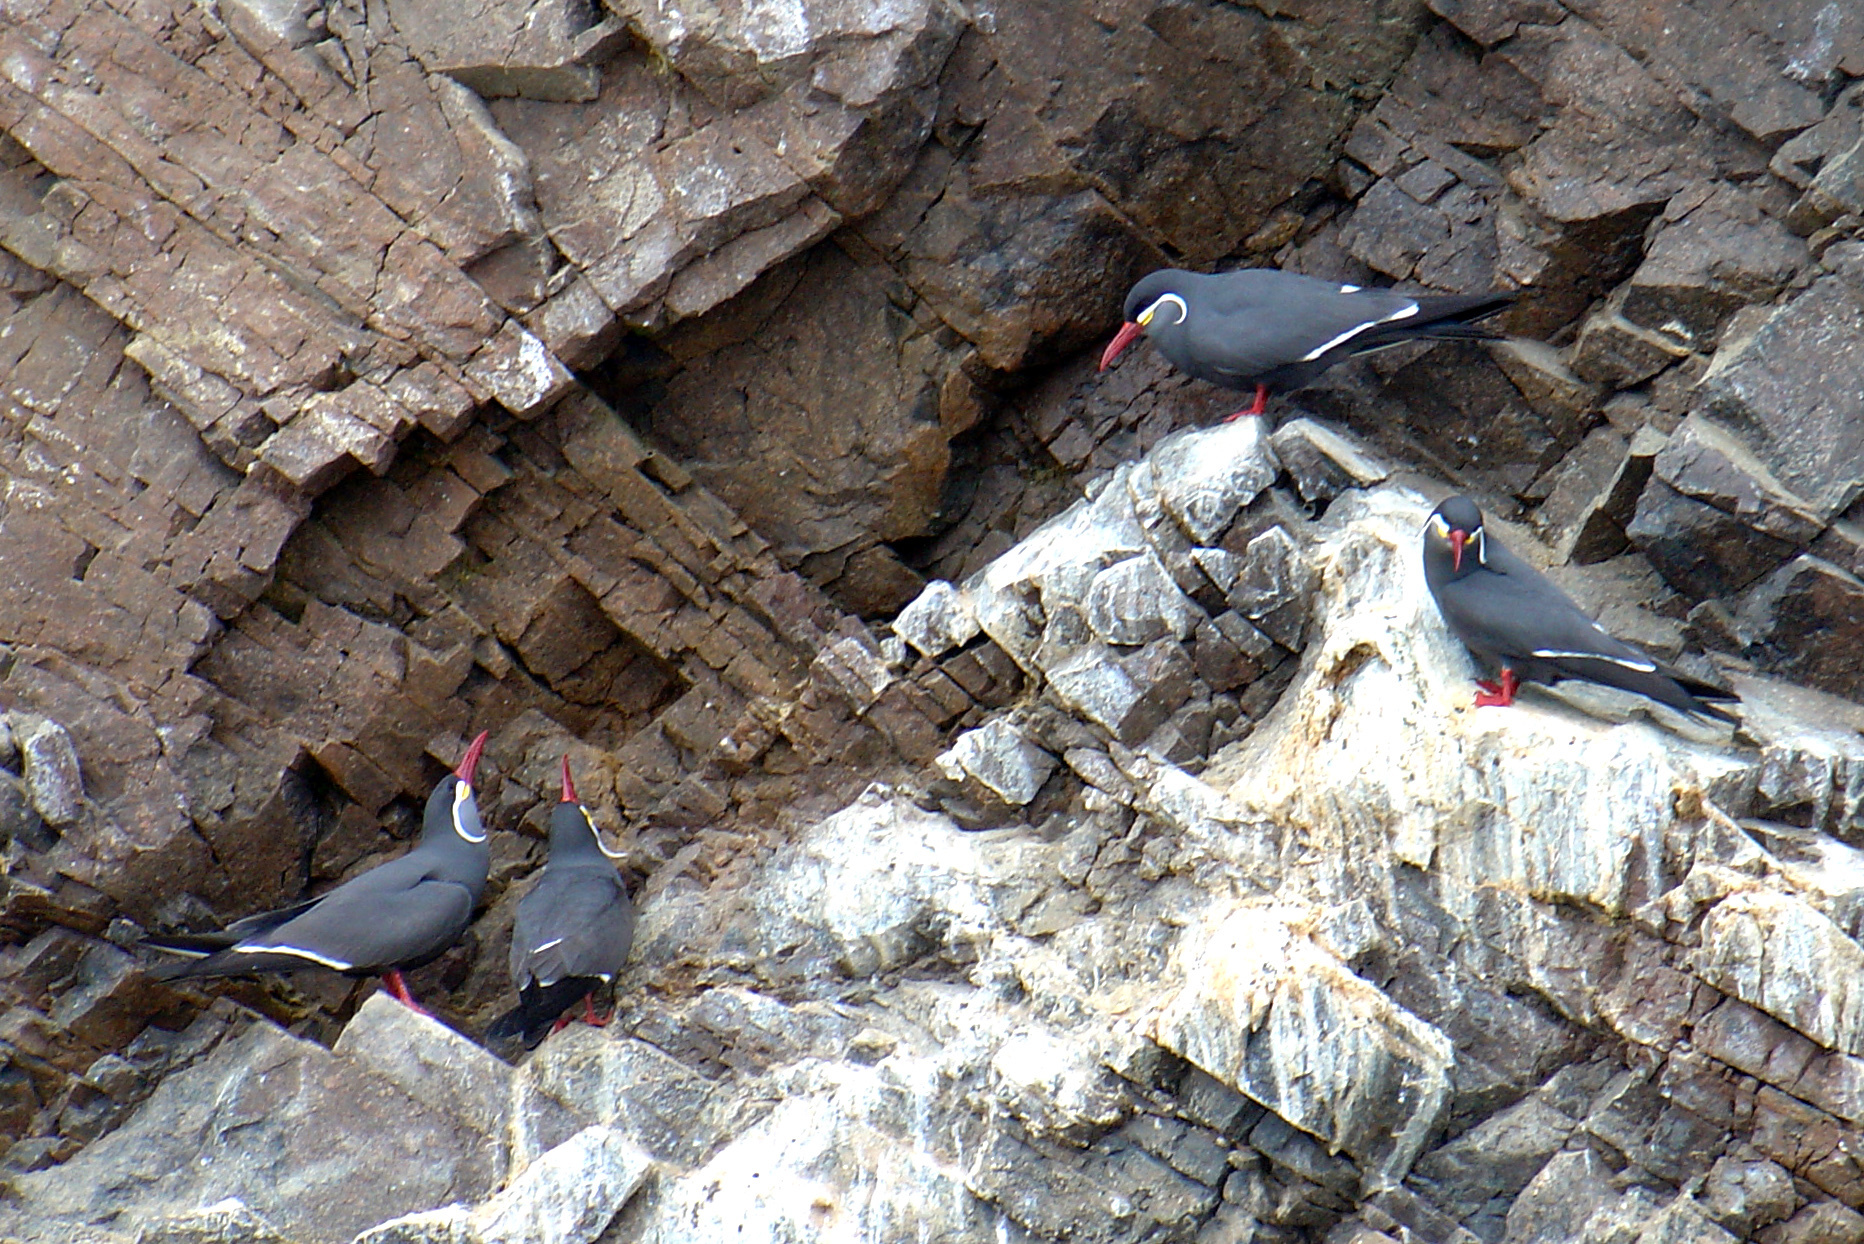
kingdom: Animalia
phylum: Chordata
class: Aves
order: Charadriiformes
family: Laridae
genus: Larosterna
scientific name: Larosterna inca
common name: Inca tern
